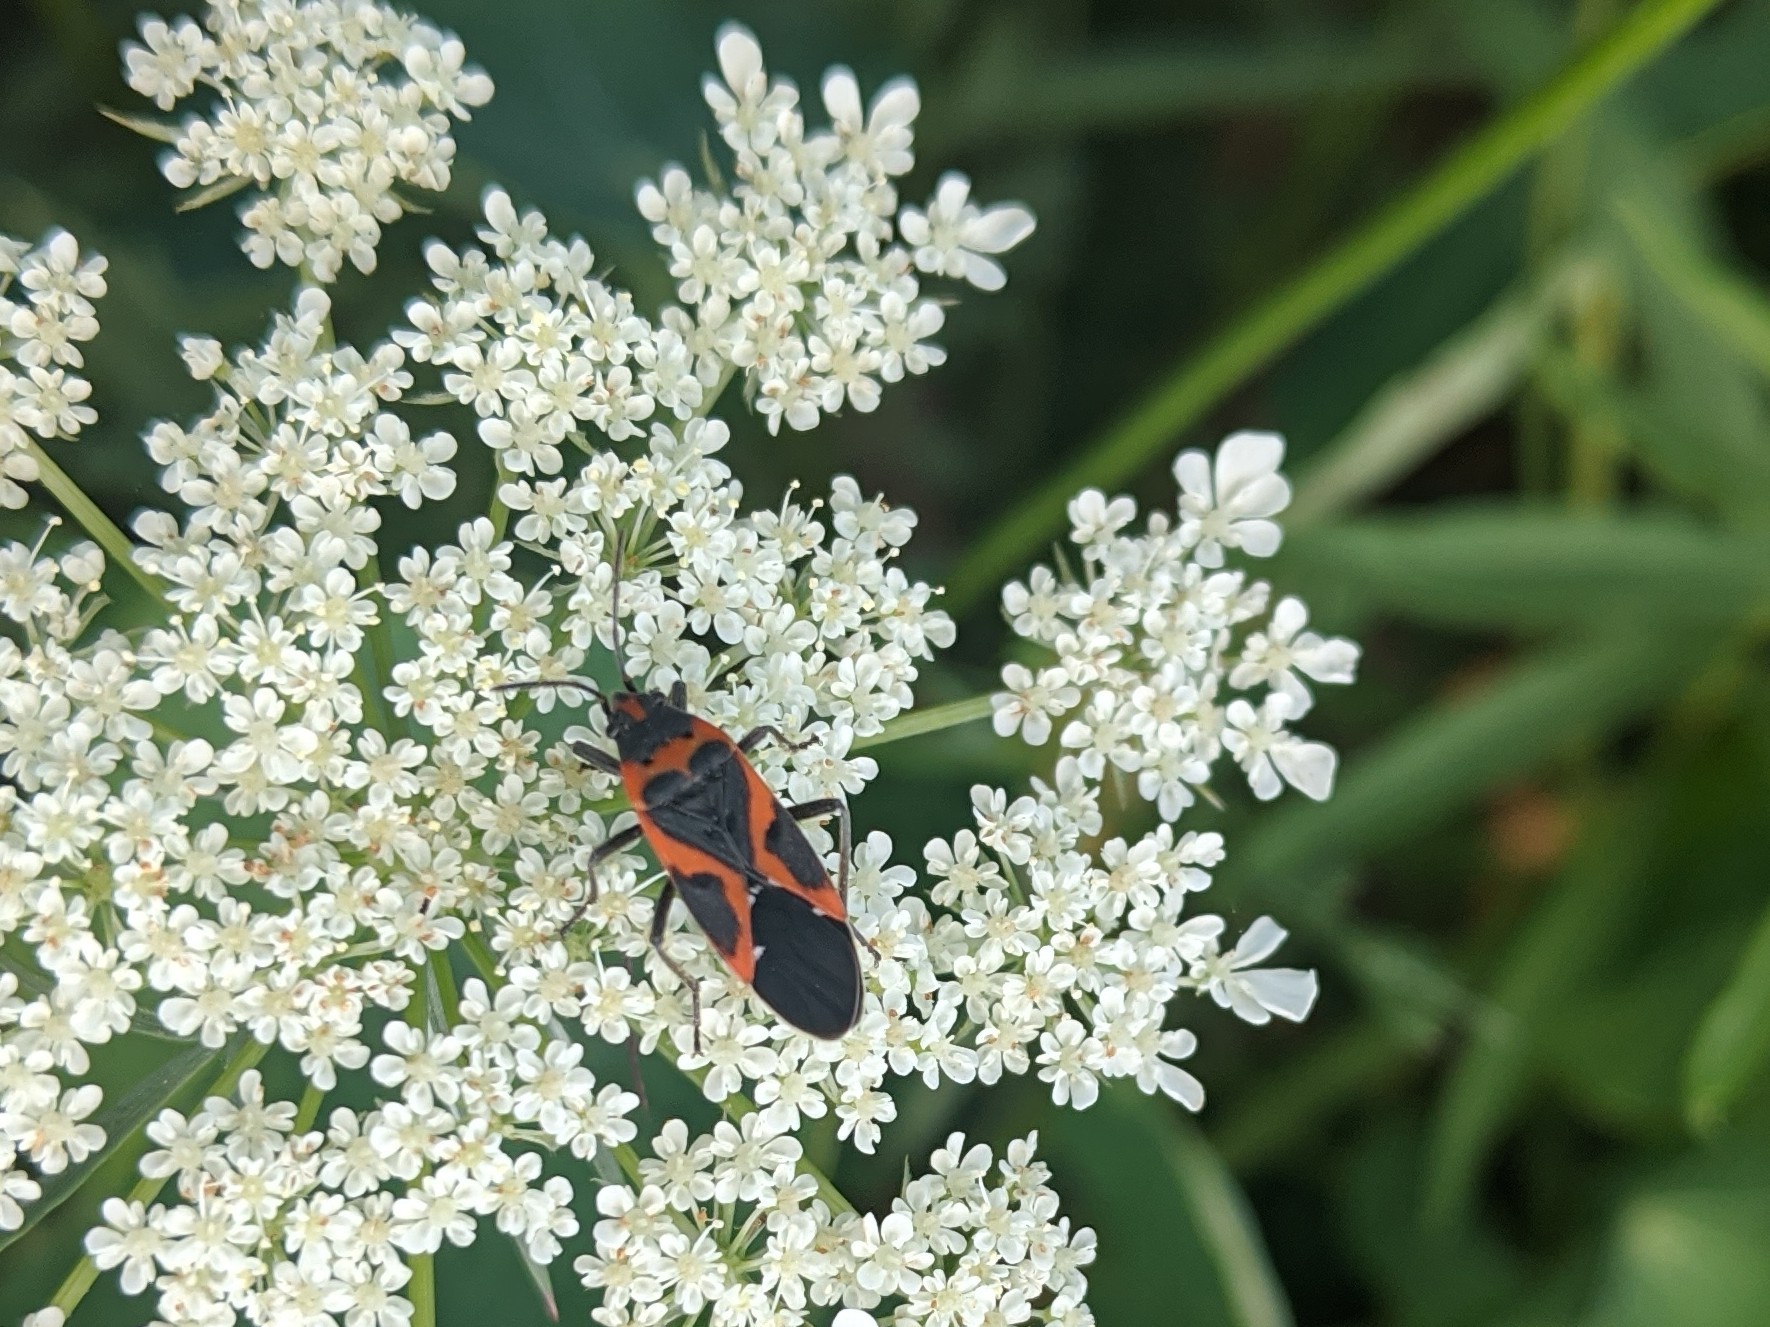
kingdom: Animalia
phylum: Arthropoda
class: Insecta
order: Hemiptera
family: Lygaeidae
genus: Lygaeus
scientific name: Lygaeus kalmii
